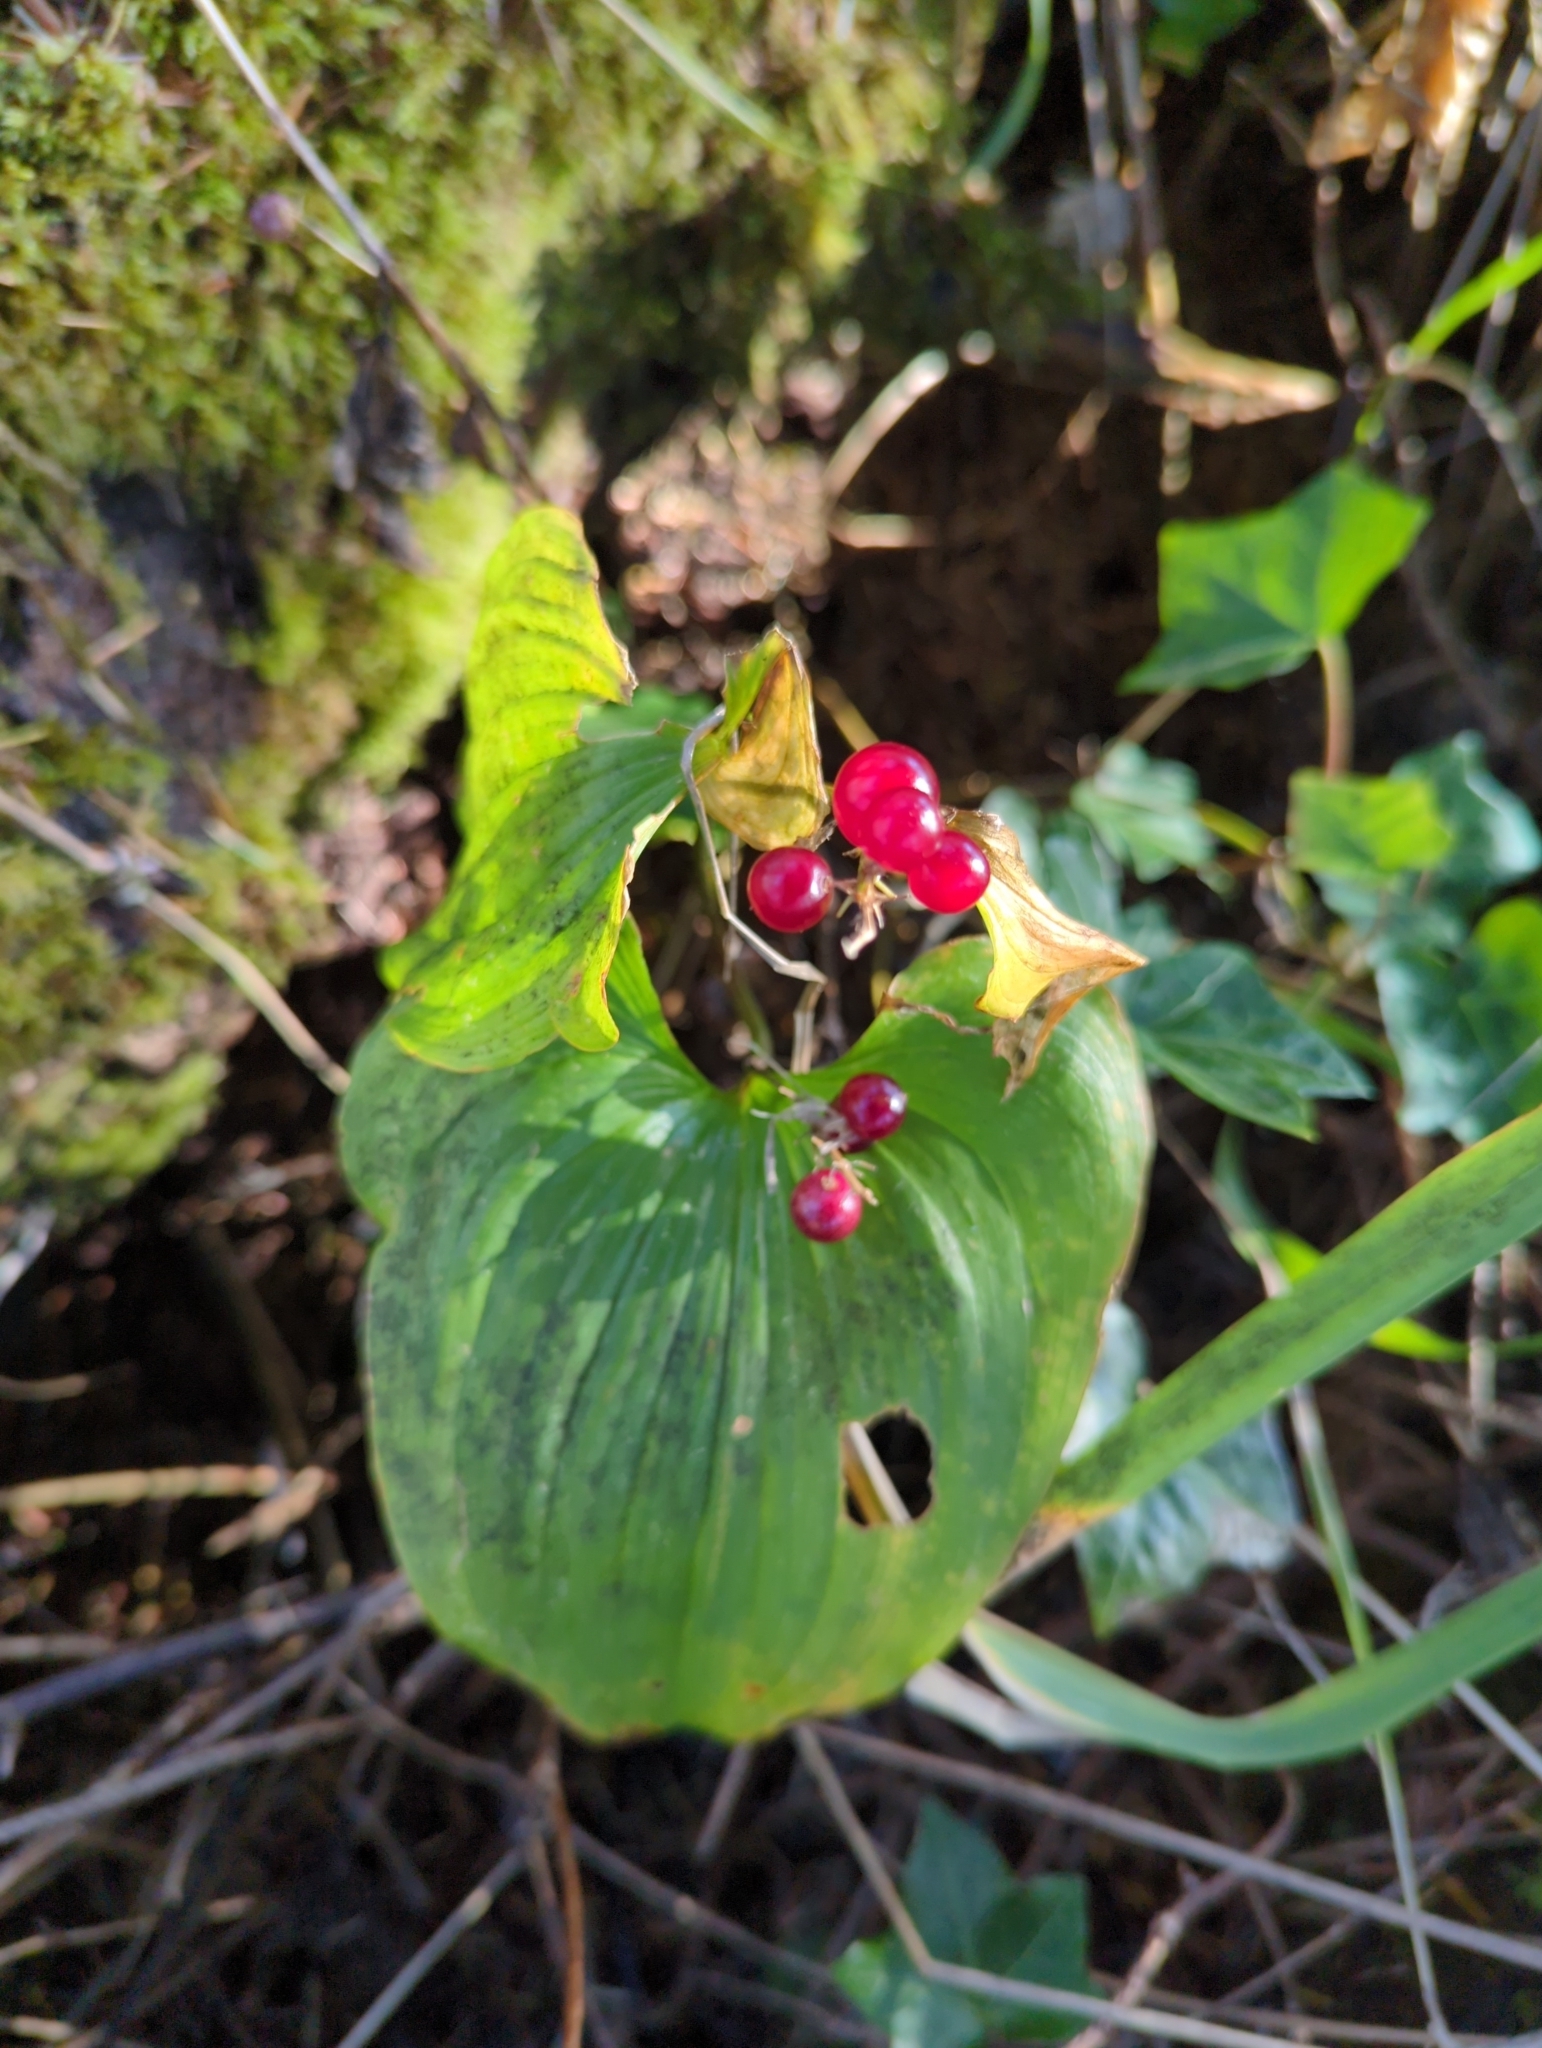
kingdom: Plantae
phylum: Tracheophyta
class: Liliopsida
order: Asparagales
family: Asparagaceae
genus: Maianthemum
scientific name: Maianthemum dilatatum
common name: False lily-of-the-valley
